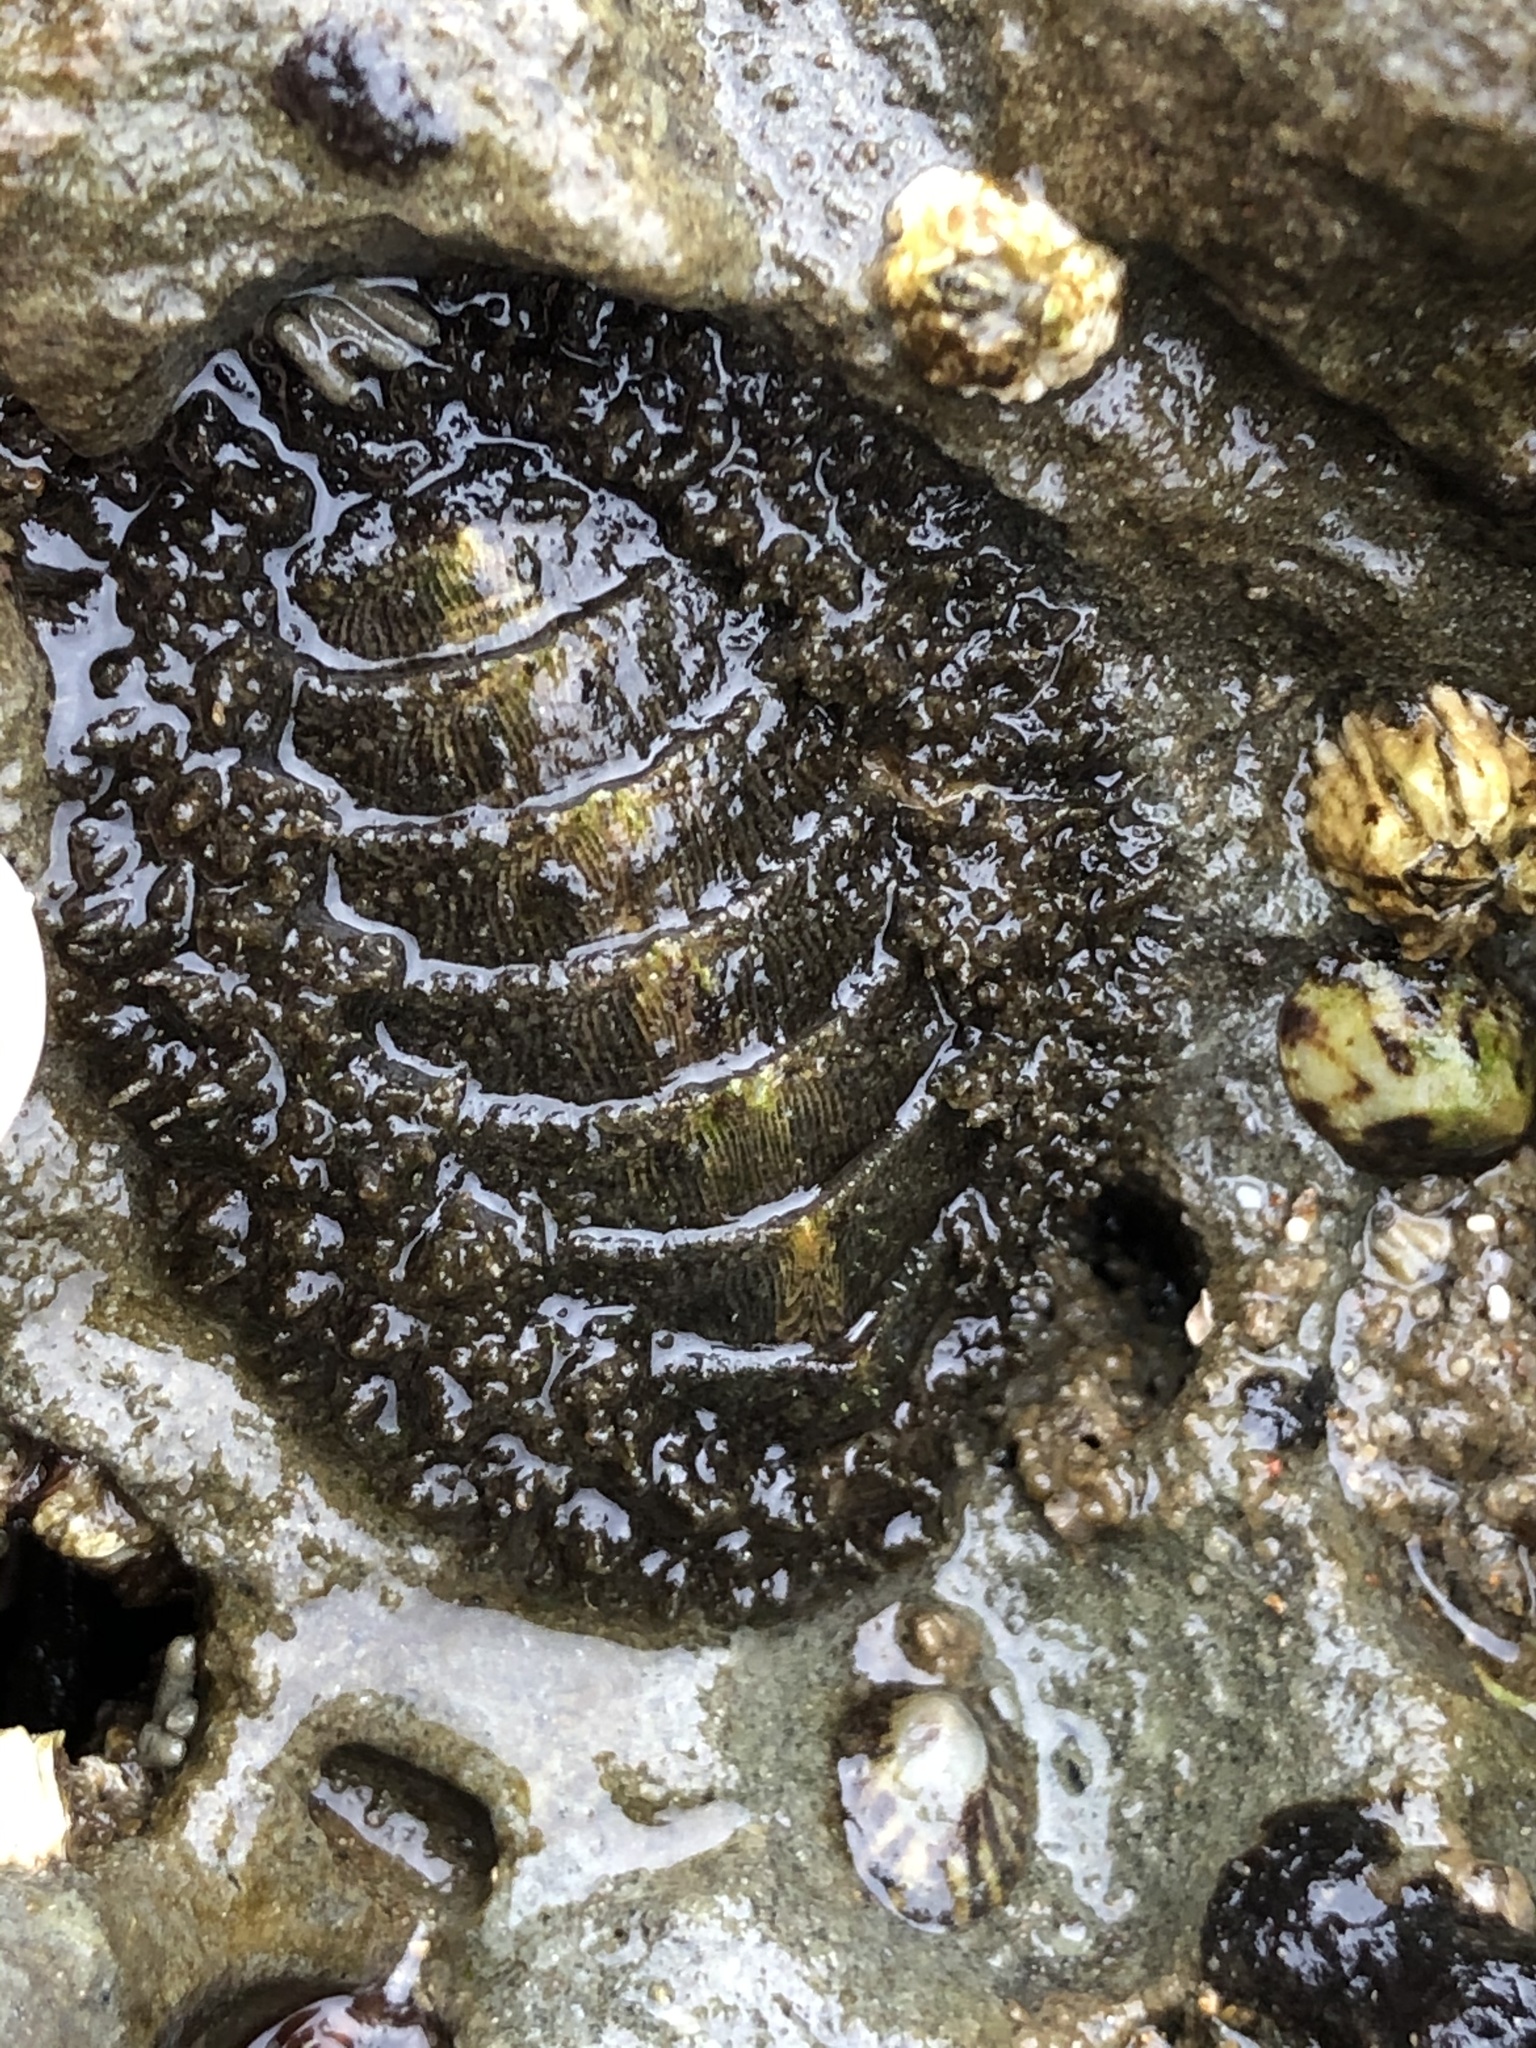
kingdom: Animalia
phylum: Mollusca
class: Polyplacophora
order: Chitonida
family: Mopaliidae
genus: Mopalia
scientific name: Mopalia muscosa
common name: Mossy chiton
